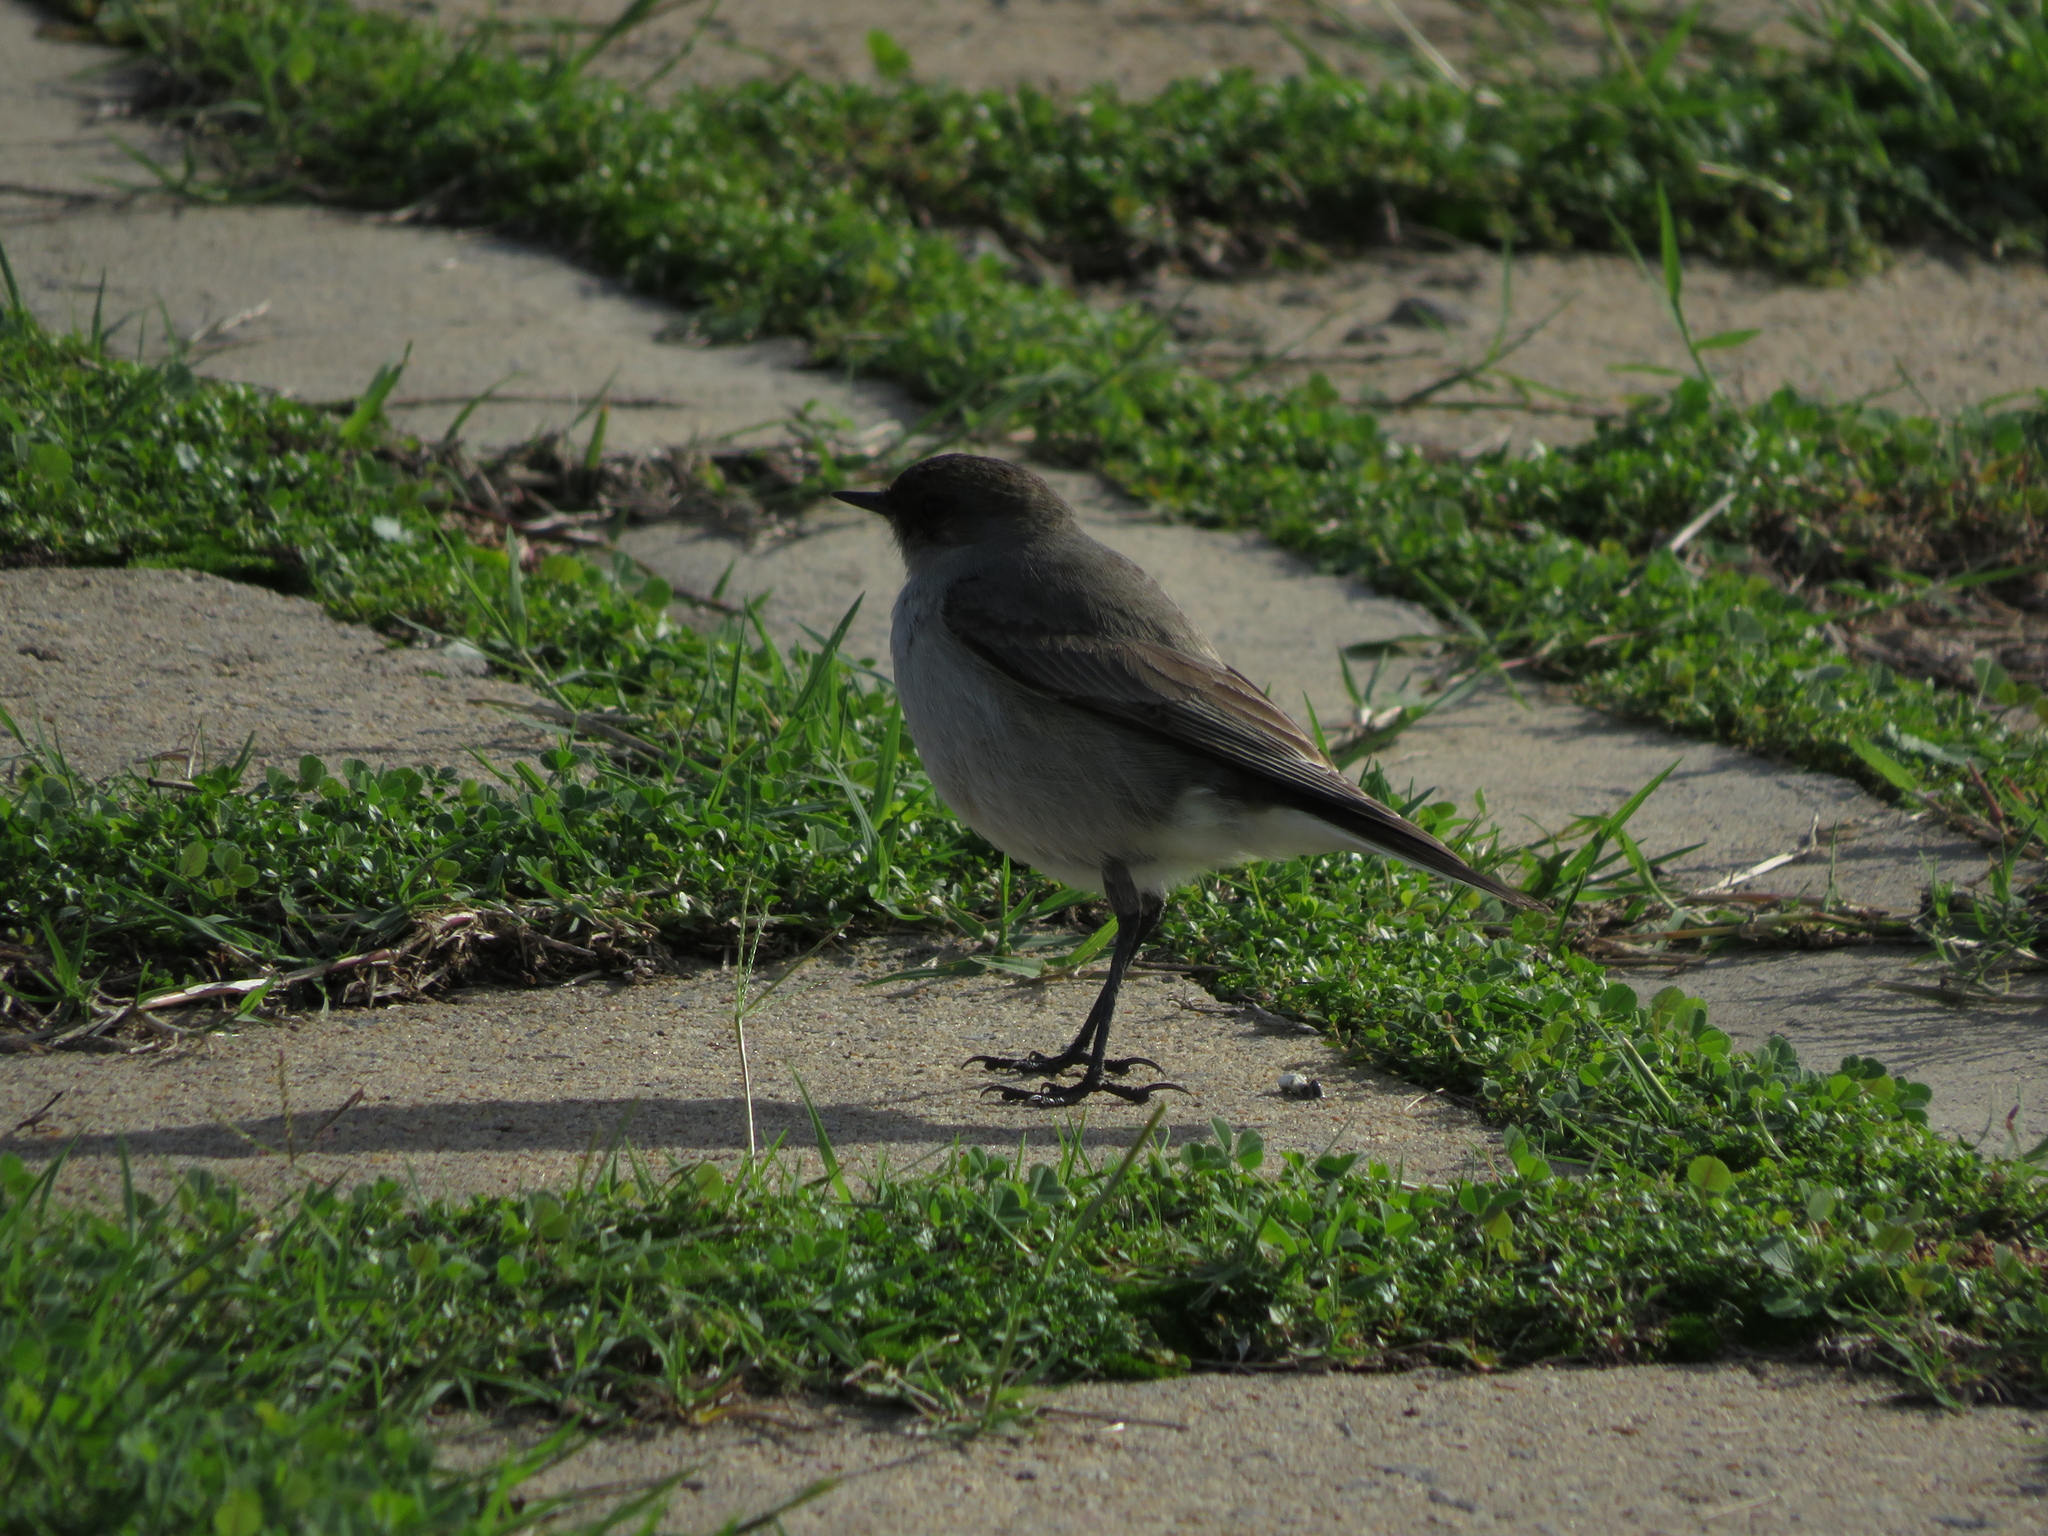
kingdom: Animalia
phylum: Chordata
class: Aves
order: Passeriformes
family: Tyrannidae
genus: Muscisaxicola
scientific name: Muscisaxicola maclovianus
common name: Dark-faced ground tyrant
